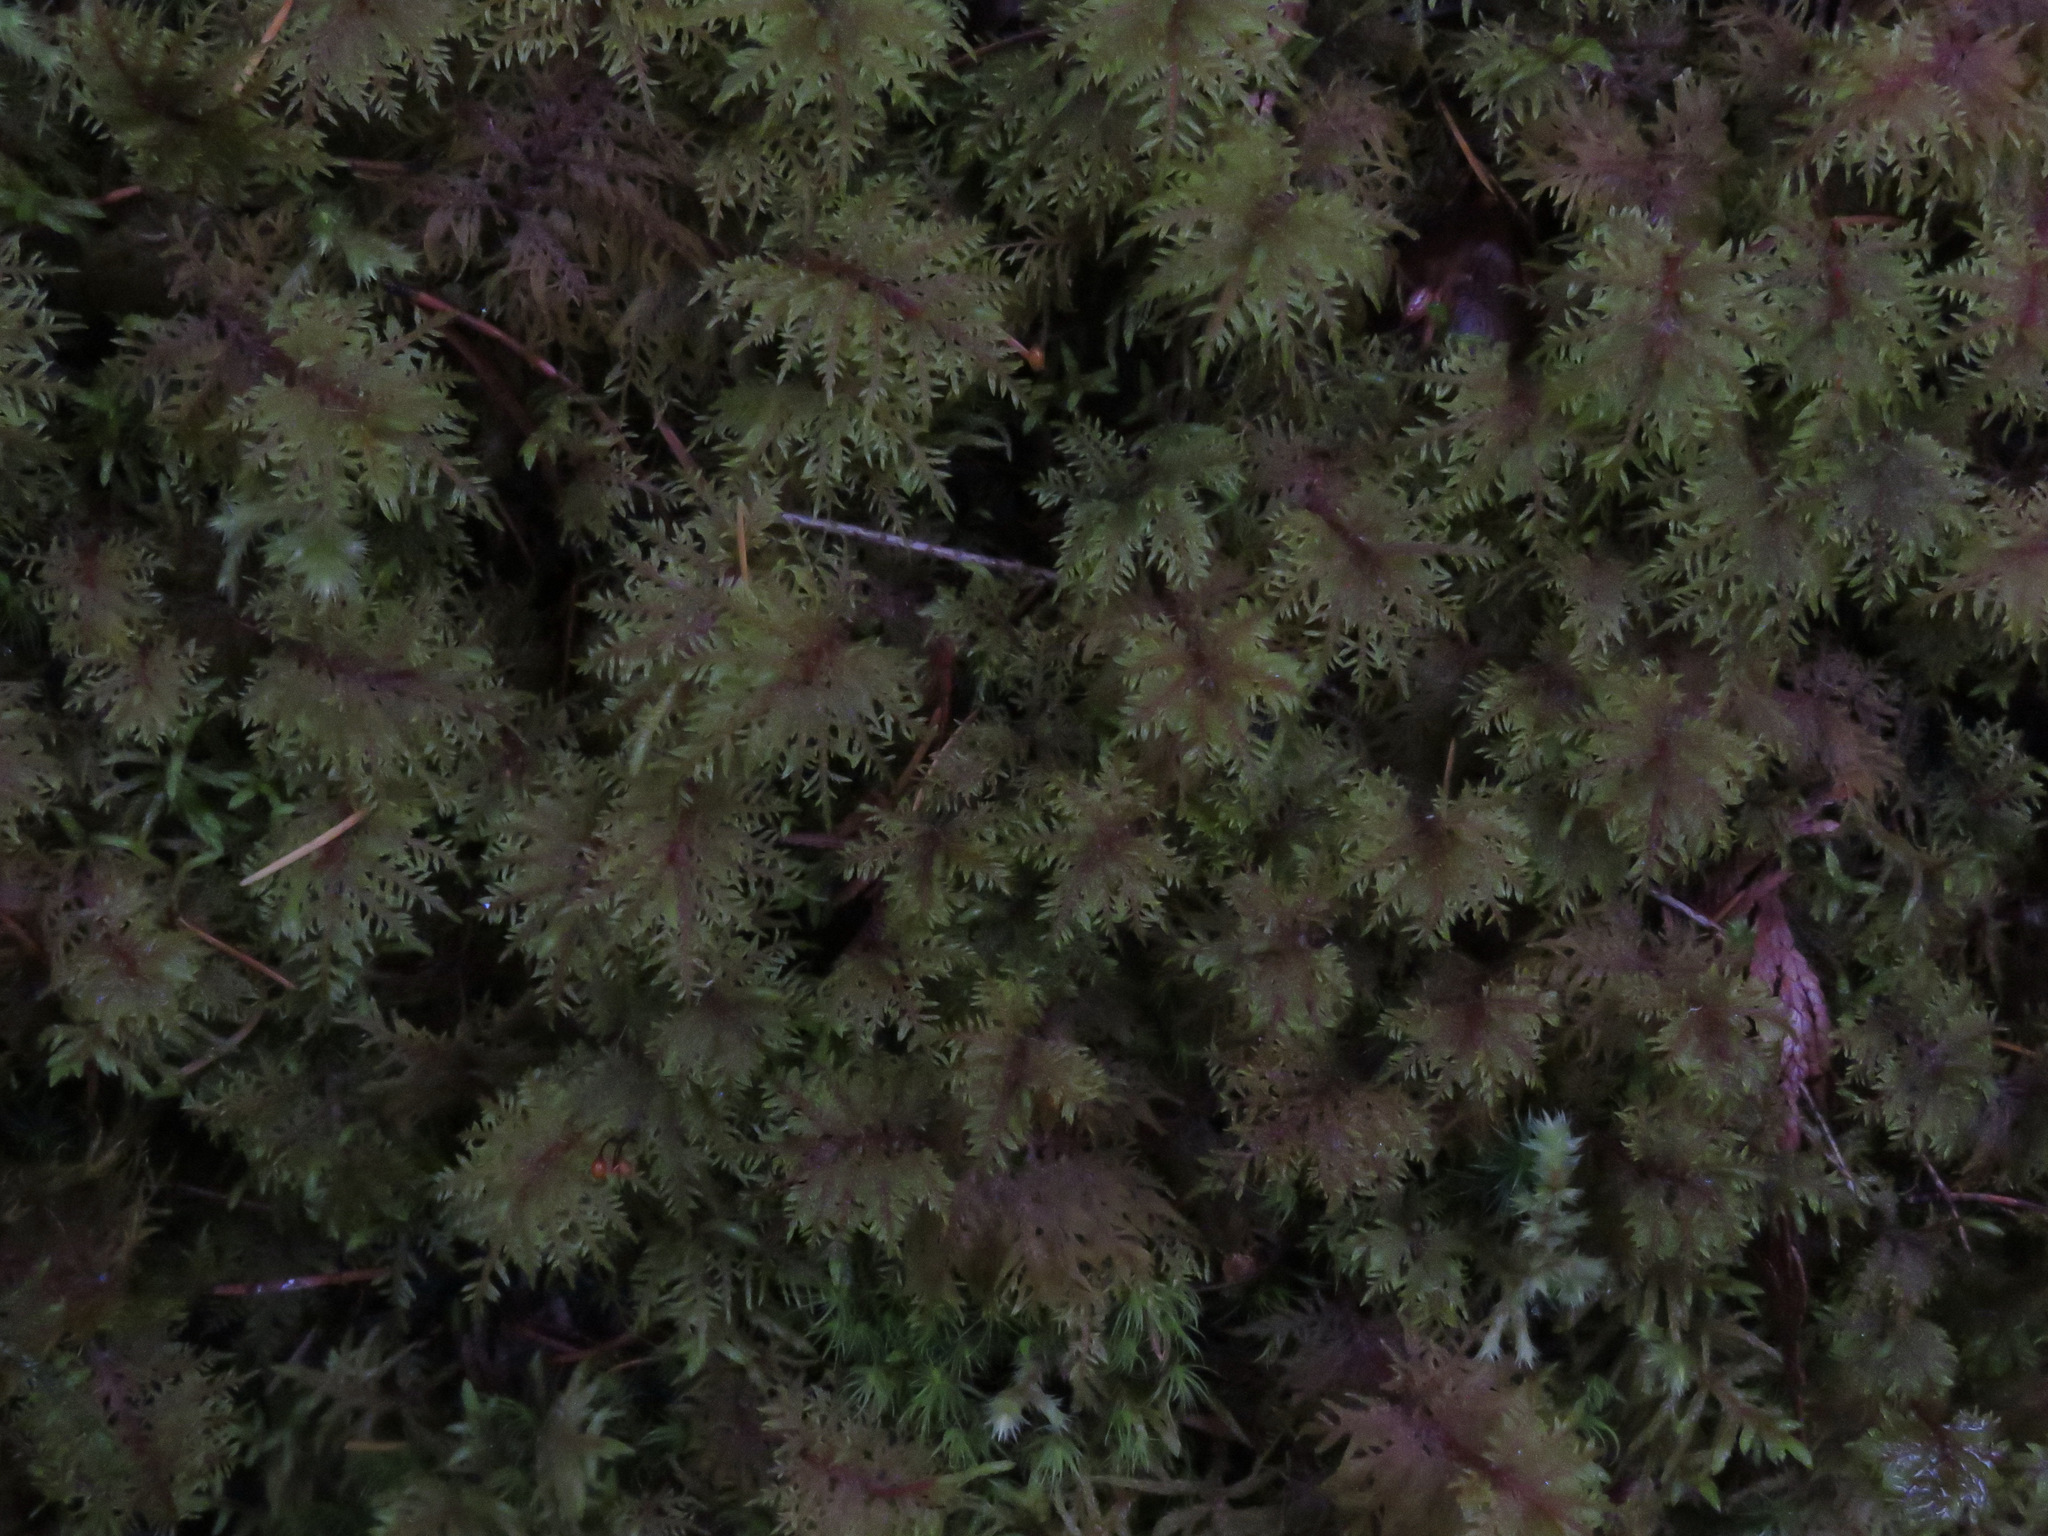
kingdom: Plantae
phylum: Bryophyta
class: Bryopsida
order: Hypnales
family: Hylocomiaceae
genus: Hylocomium
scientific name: Hylocomium splendens
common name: Stairstep moss
